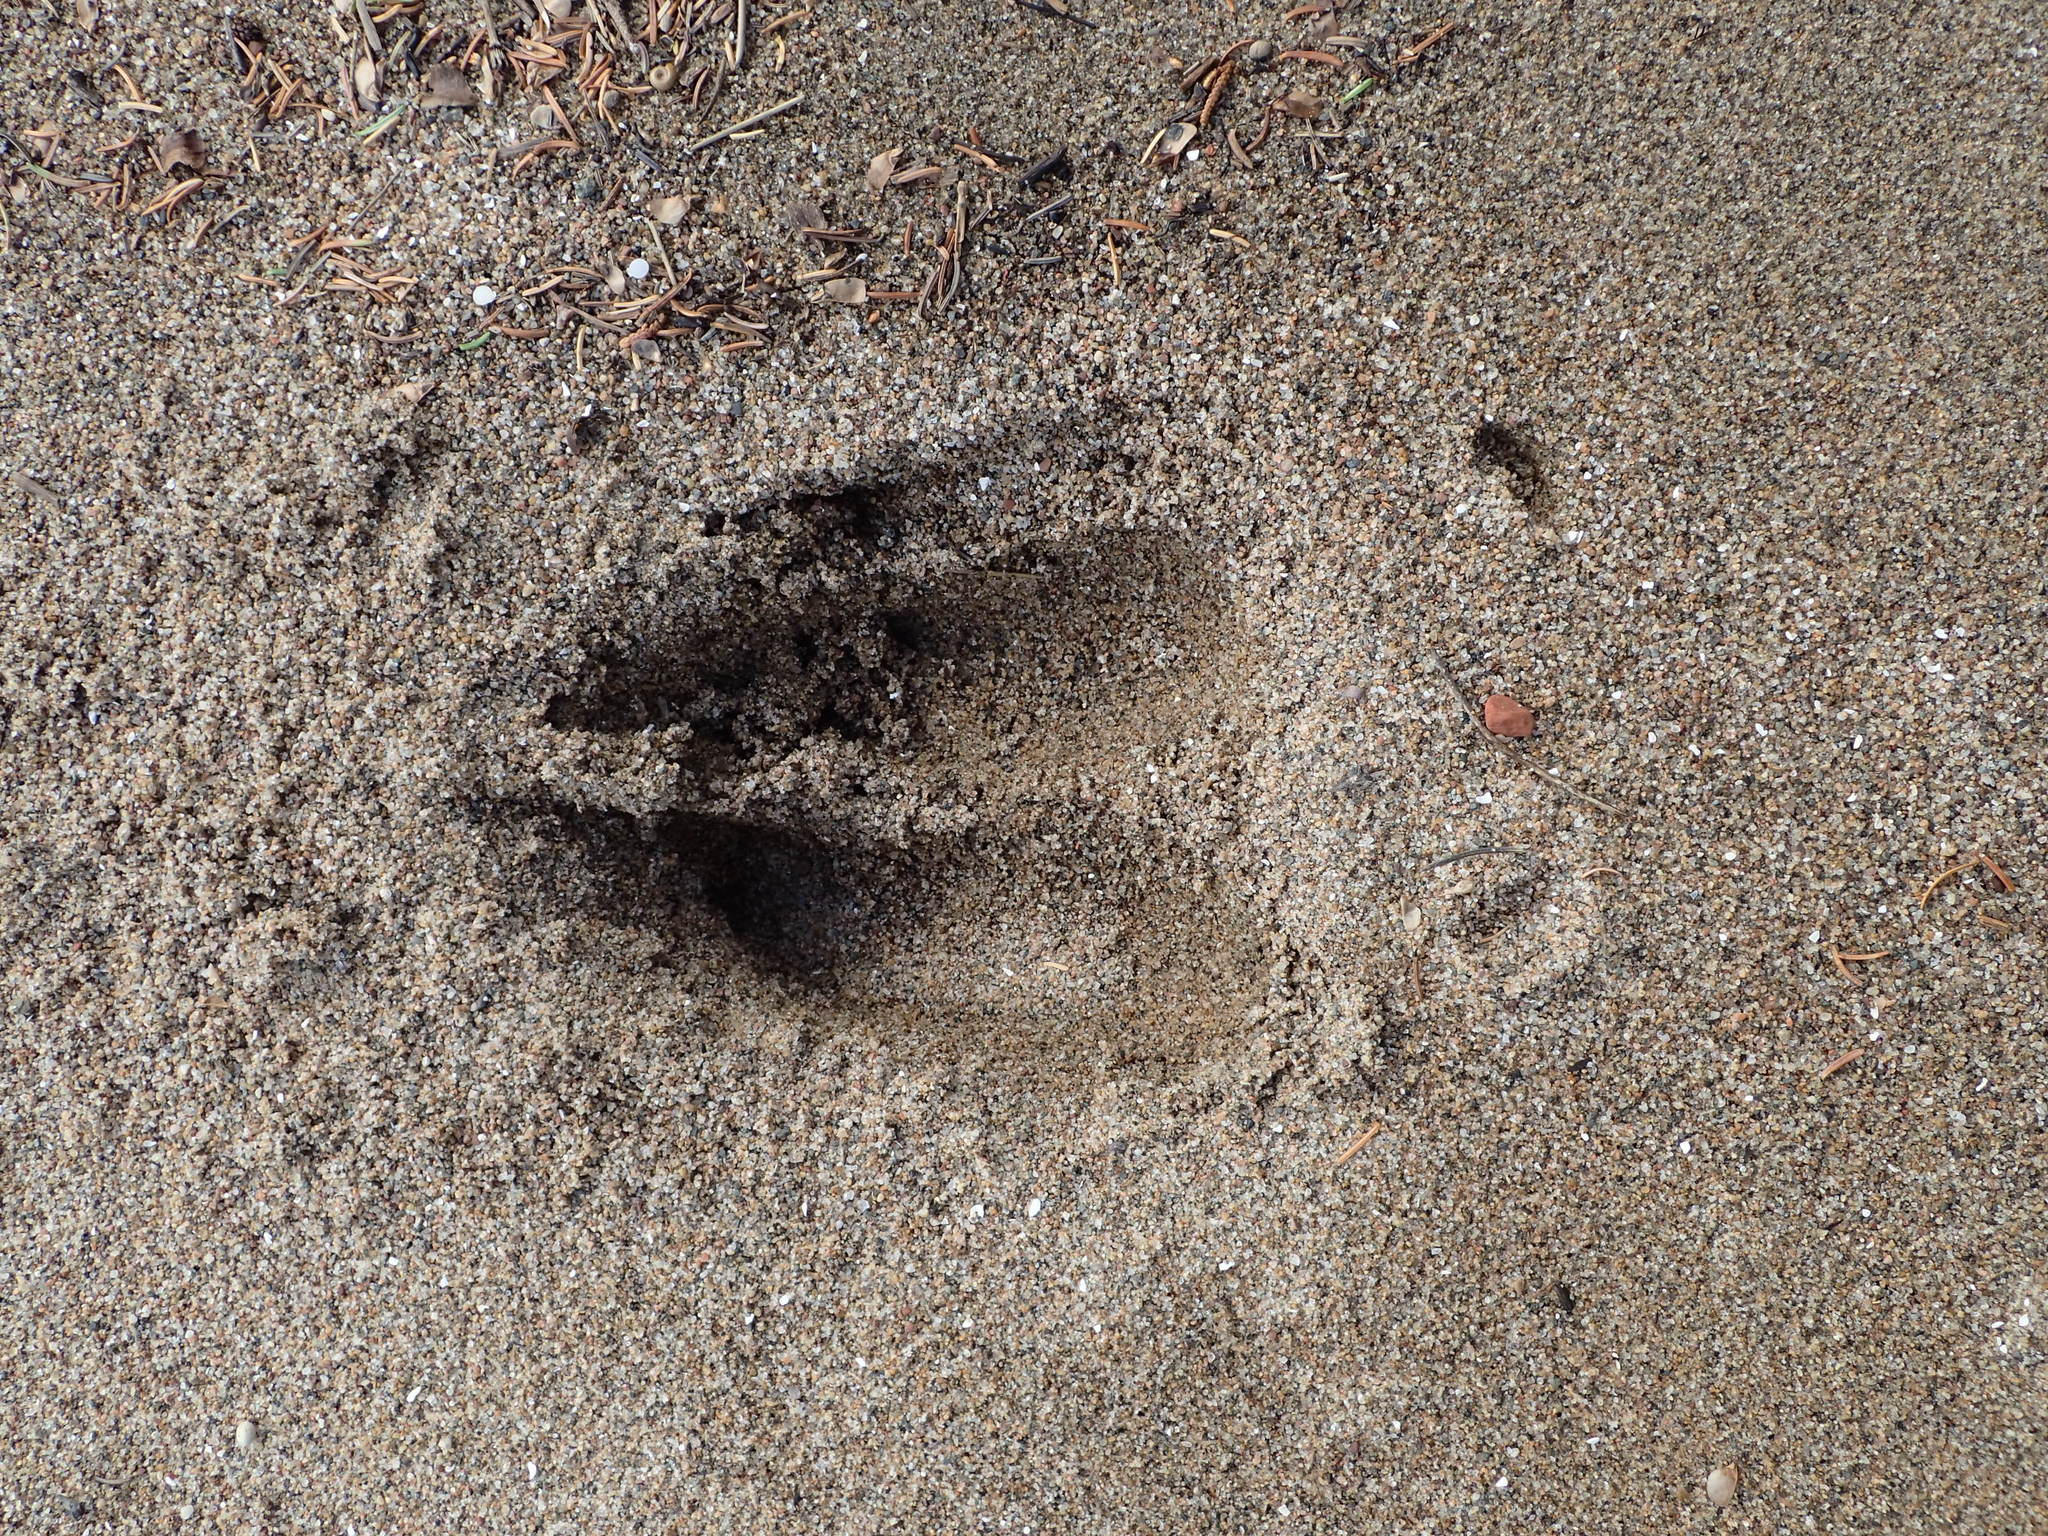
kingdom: Animalia
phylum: Chordata
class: Mammalia
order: Artiodactyla
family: Cervidae
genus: Alces
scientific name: Alces alces
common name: Moose
